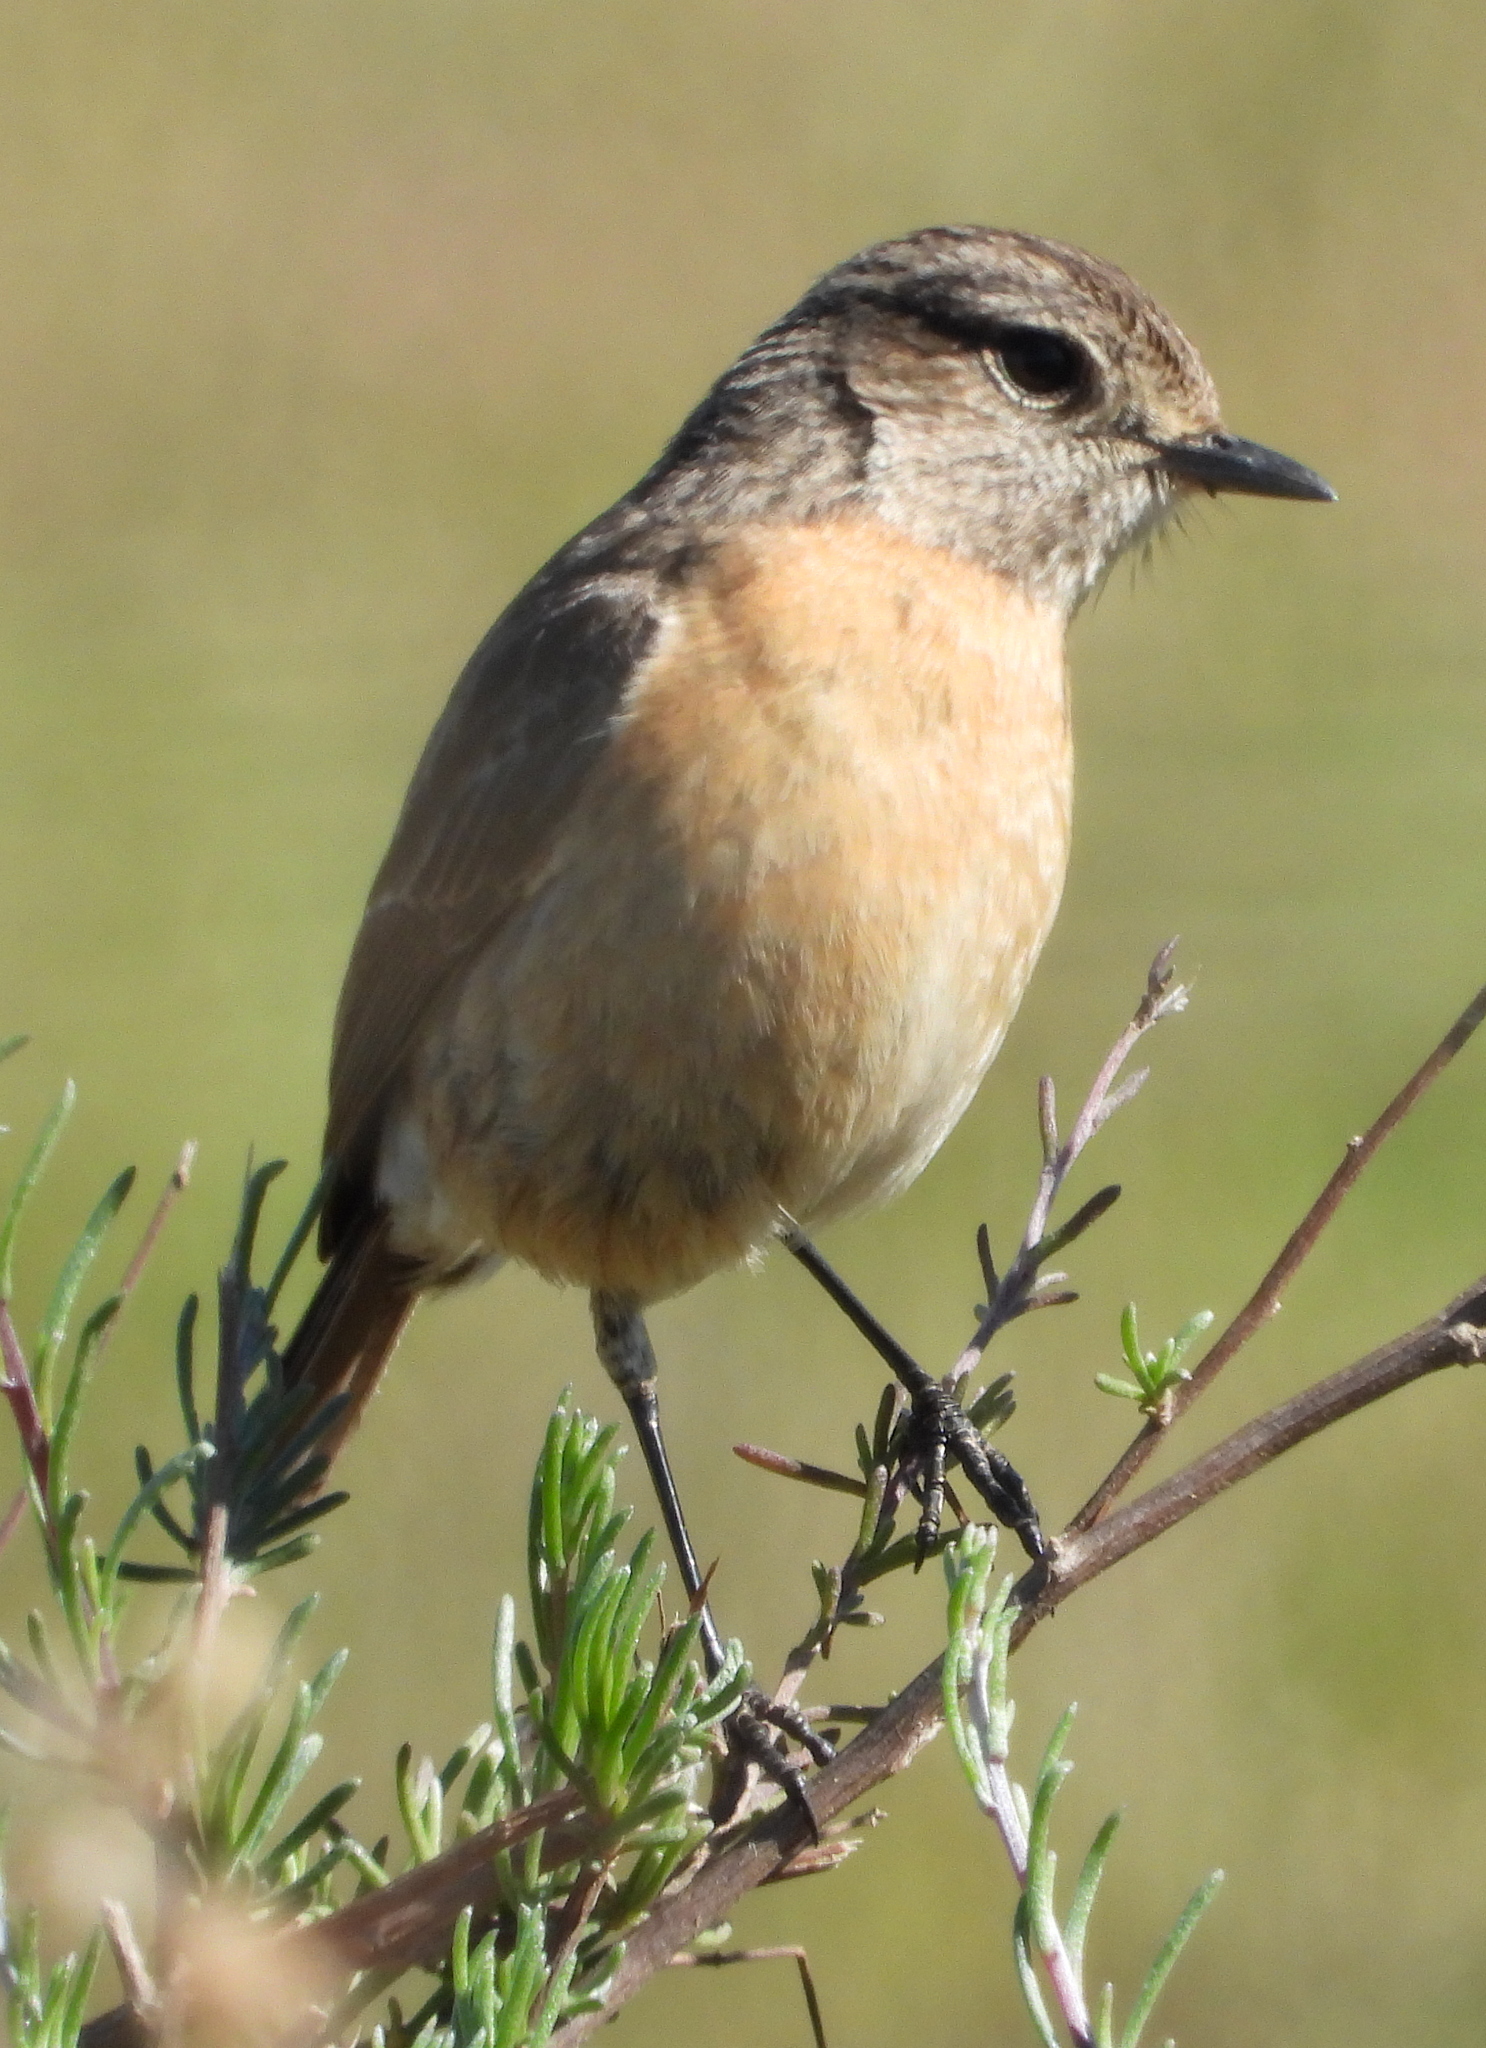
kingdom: Animalia
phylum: Chordata
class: Aves
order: Passeriformes
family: Muscicapidae
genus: Saxicola
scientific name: Saxicola torquatus
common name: African stonechat
